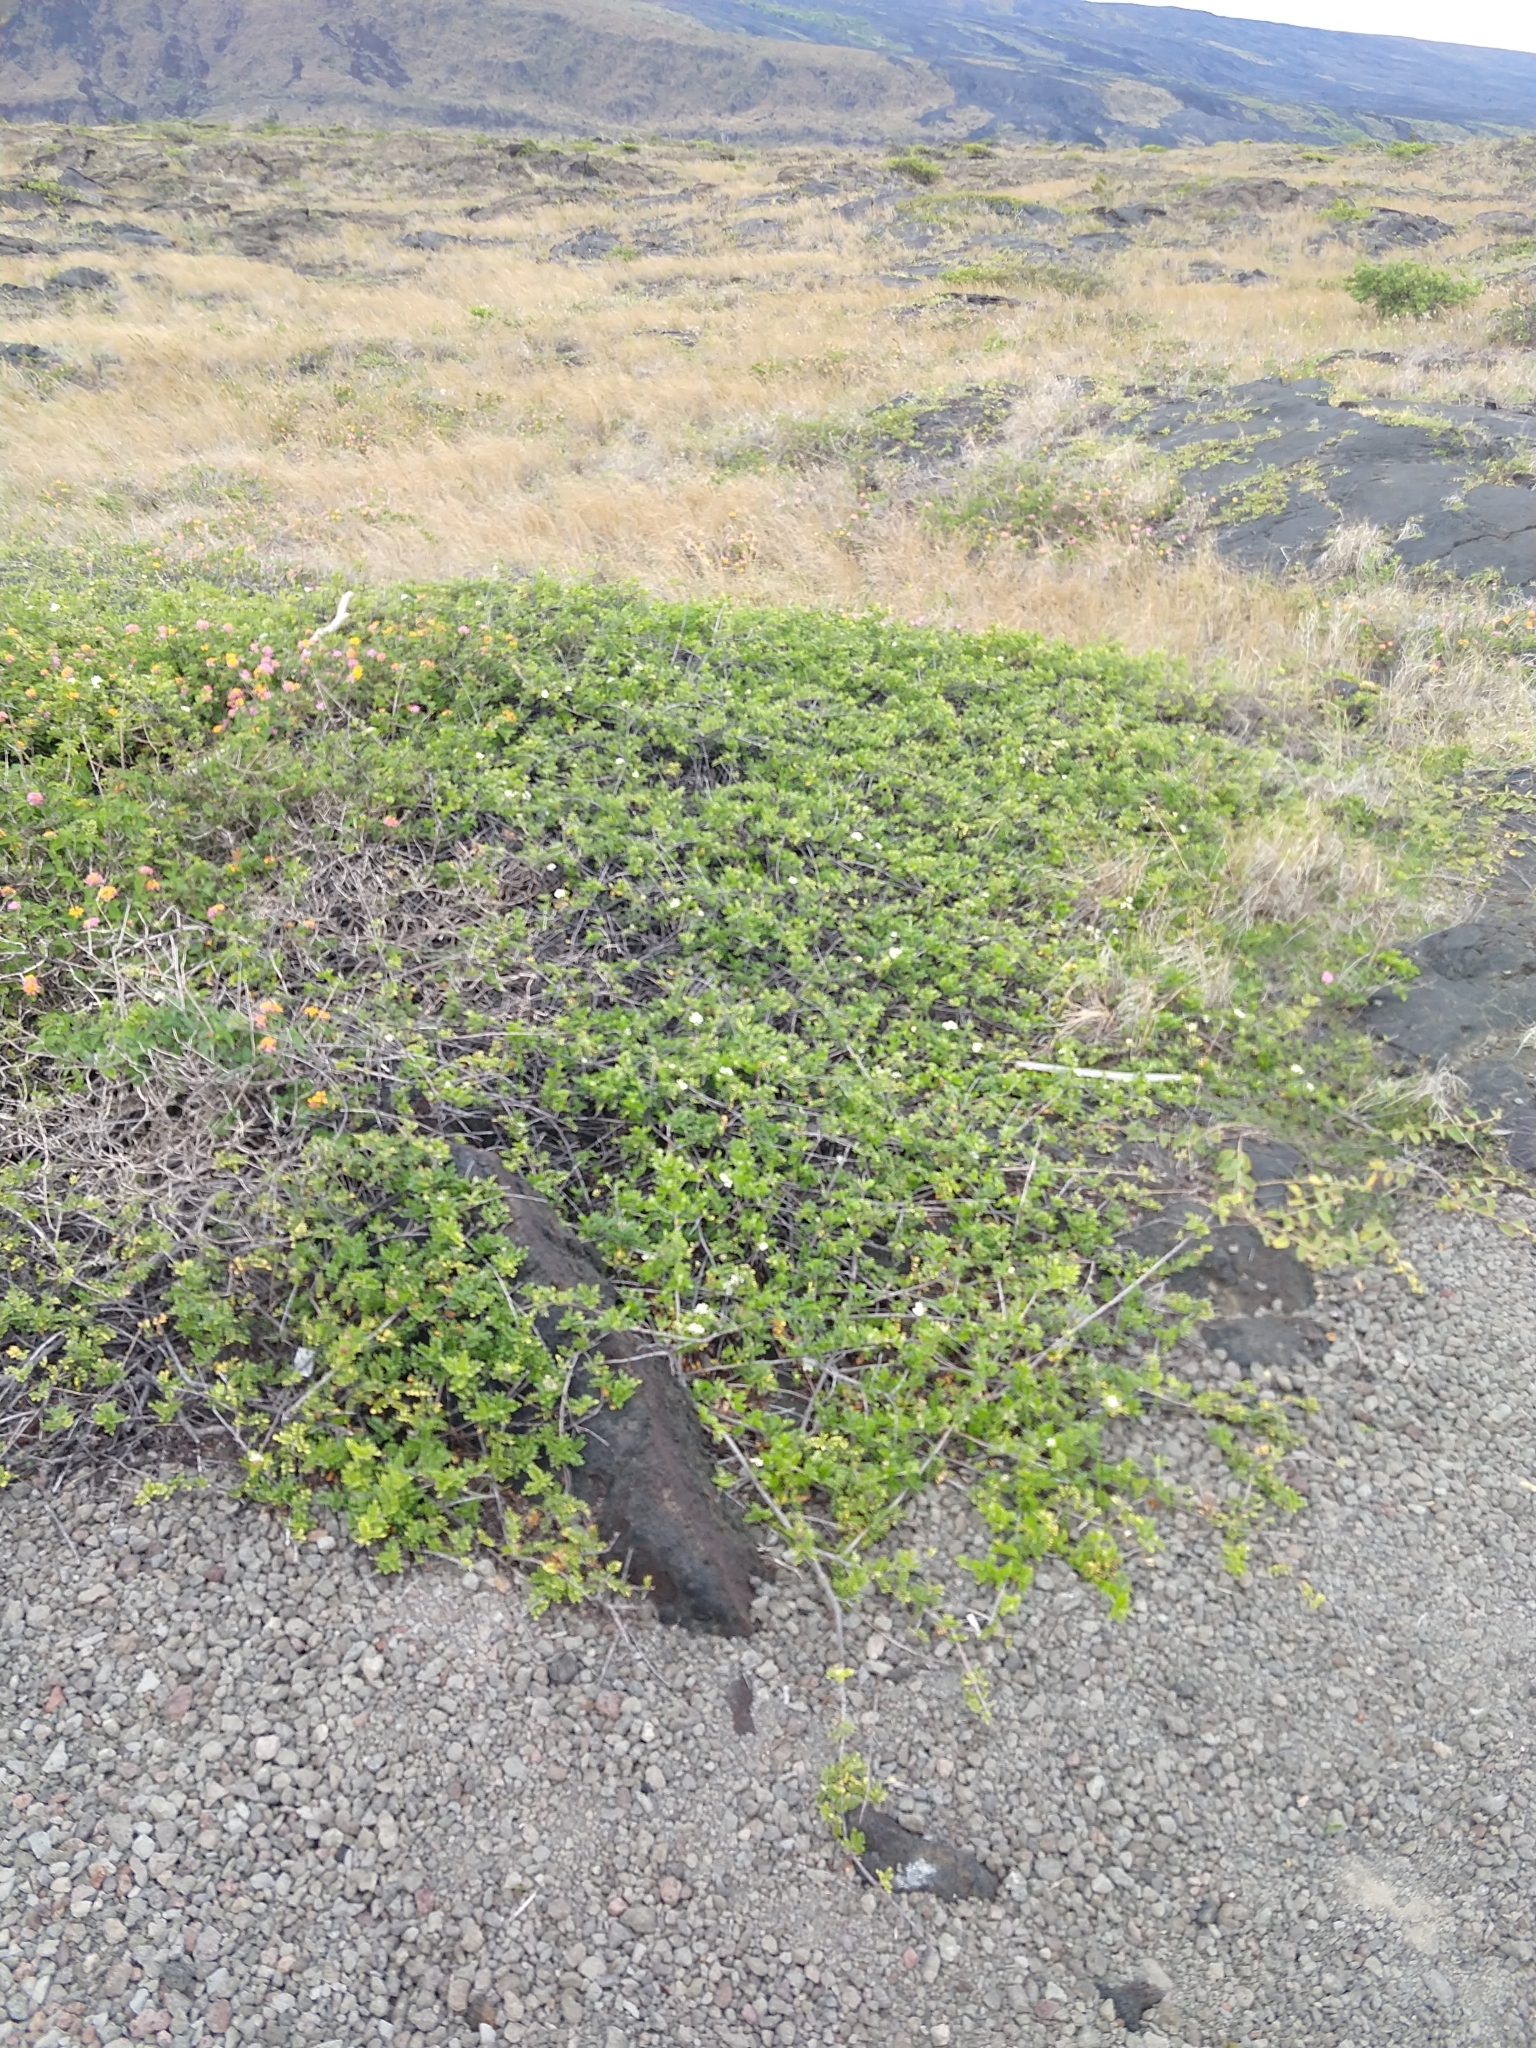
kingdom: Plantae
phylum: Tracheophyta
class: Magnoliopsida
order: Rosales
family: Rosaceae
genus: Osteomeles
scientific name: Osteomeles anthyllidifolia
